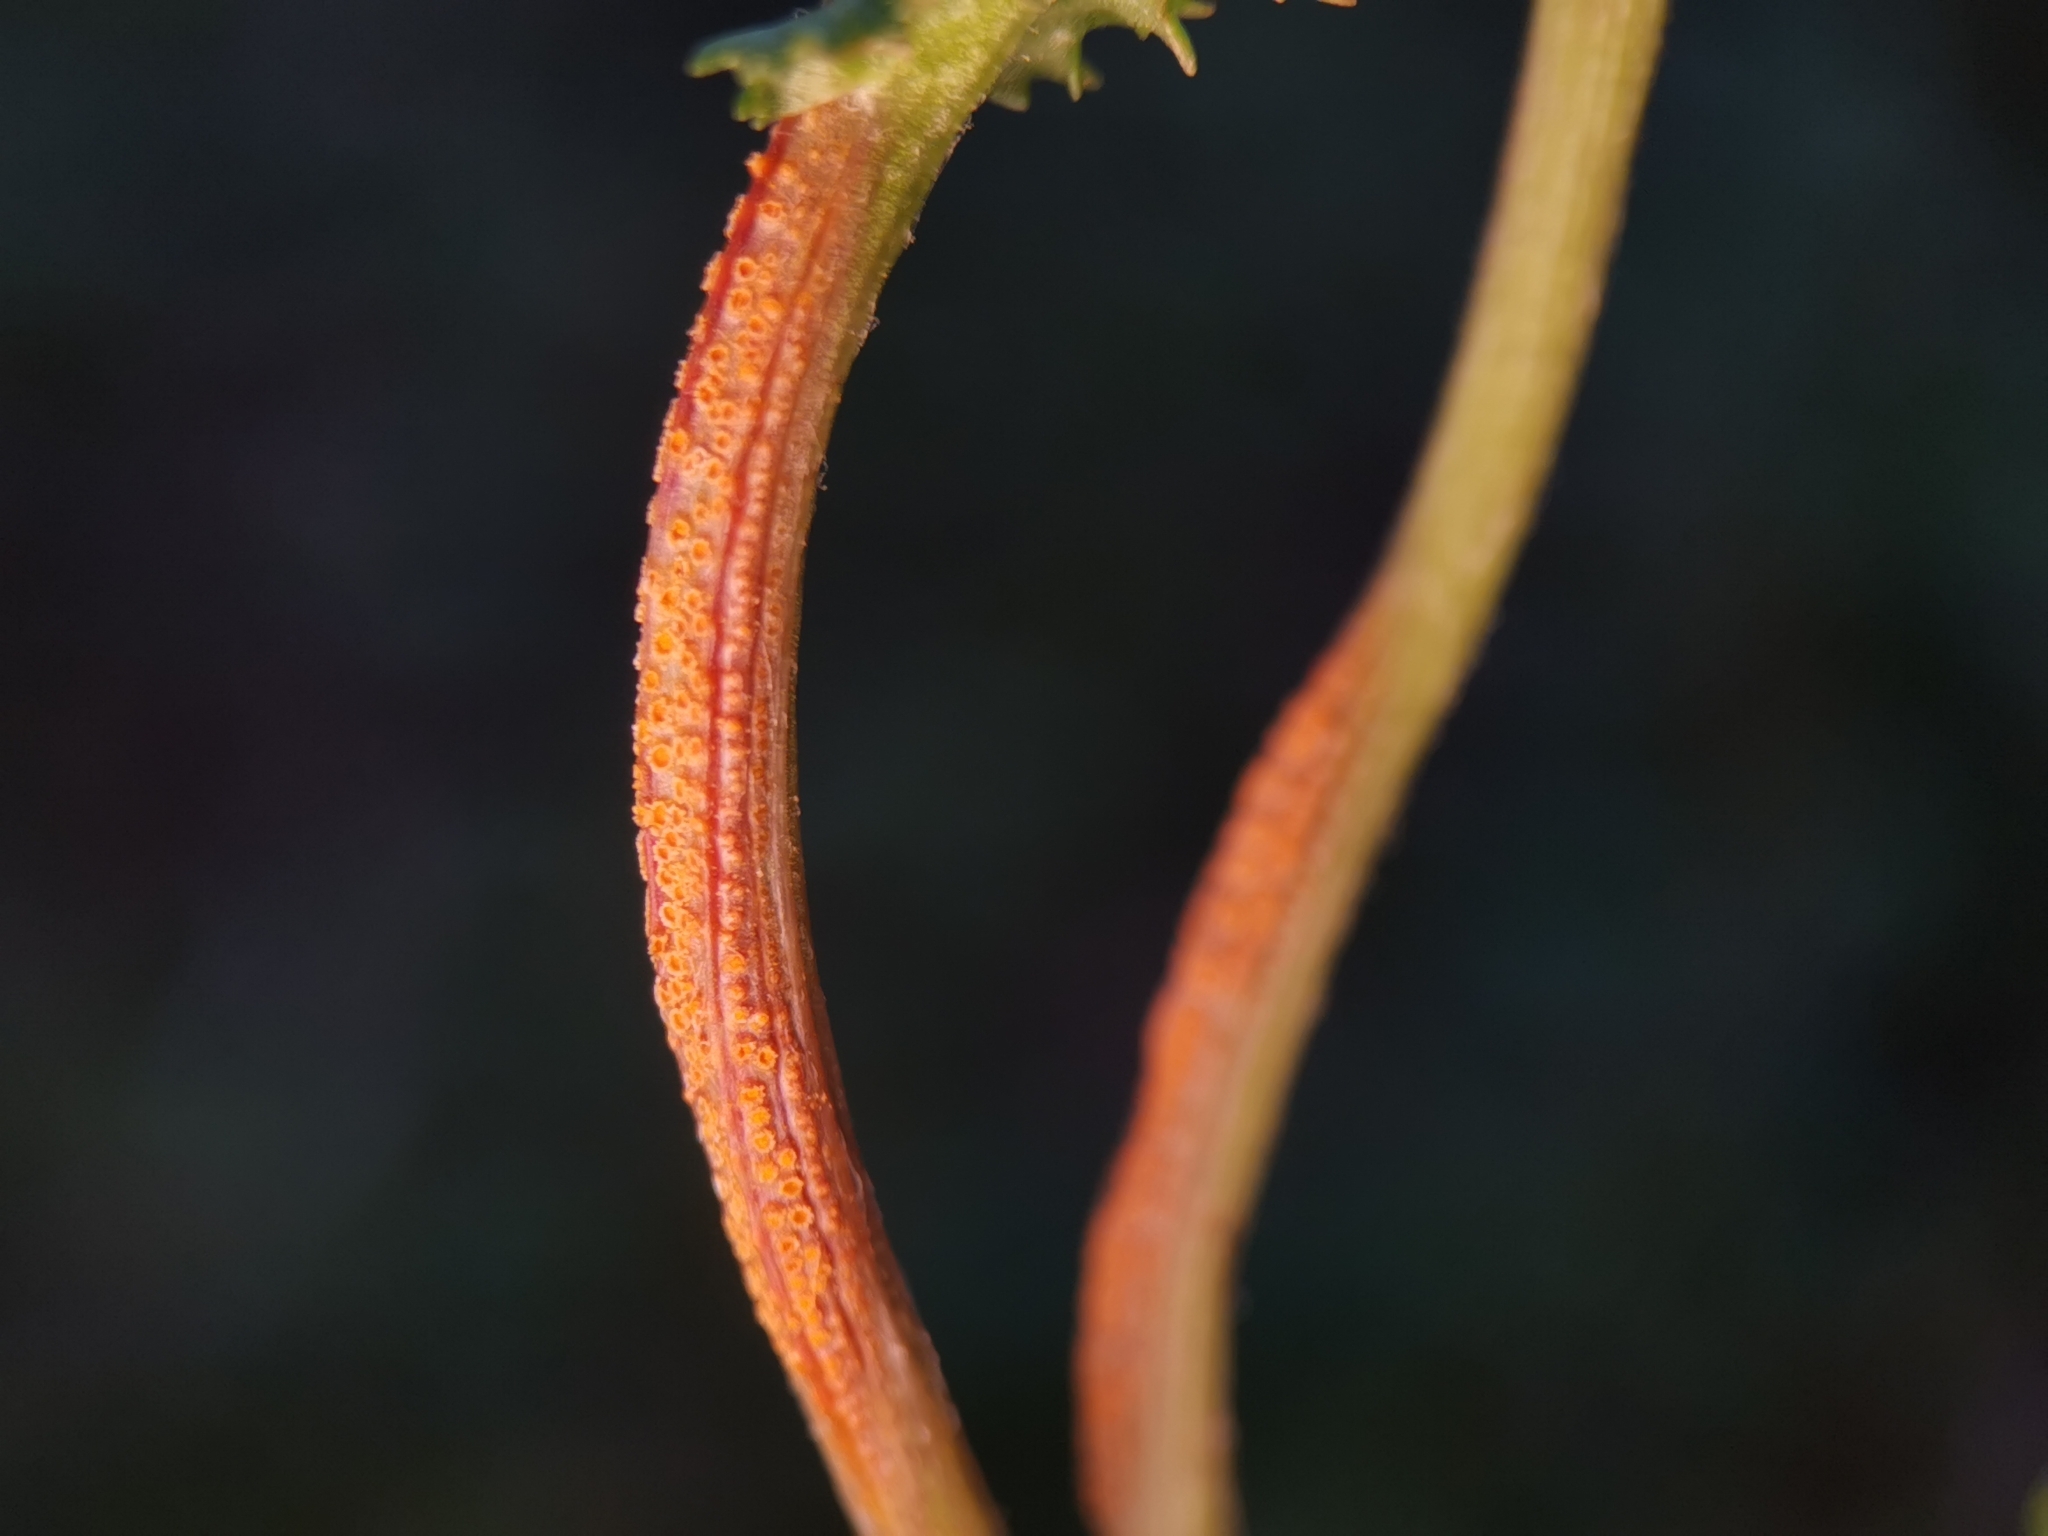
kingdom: Fungi
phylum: Basidiomycota
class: Pucciniomycetes
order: Pucciniales
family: Pucciniaceae
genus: Puccinia
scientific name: Puccinia lagenophorae
